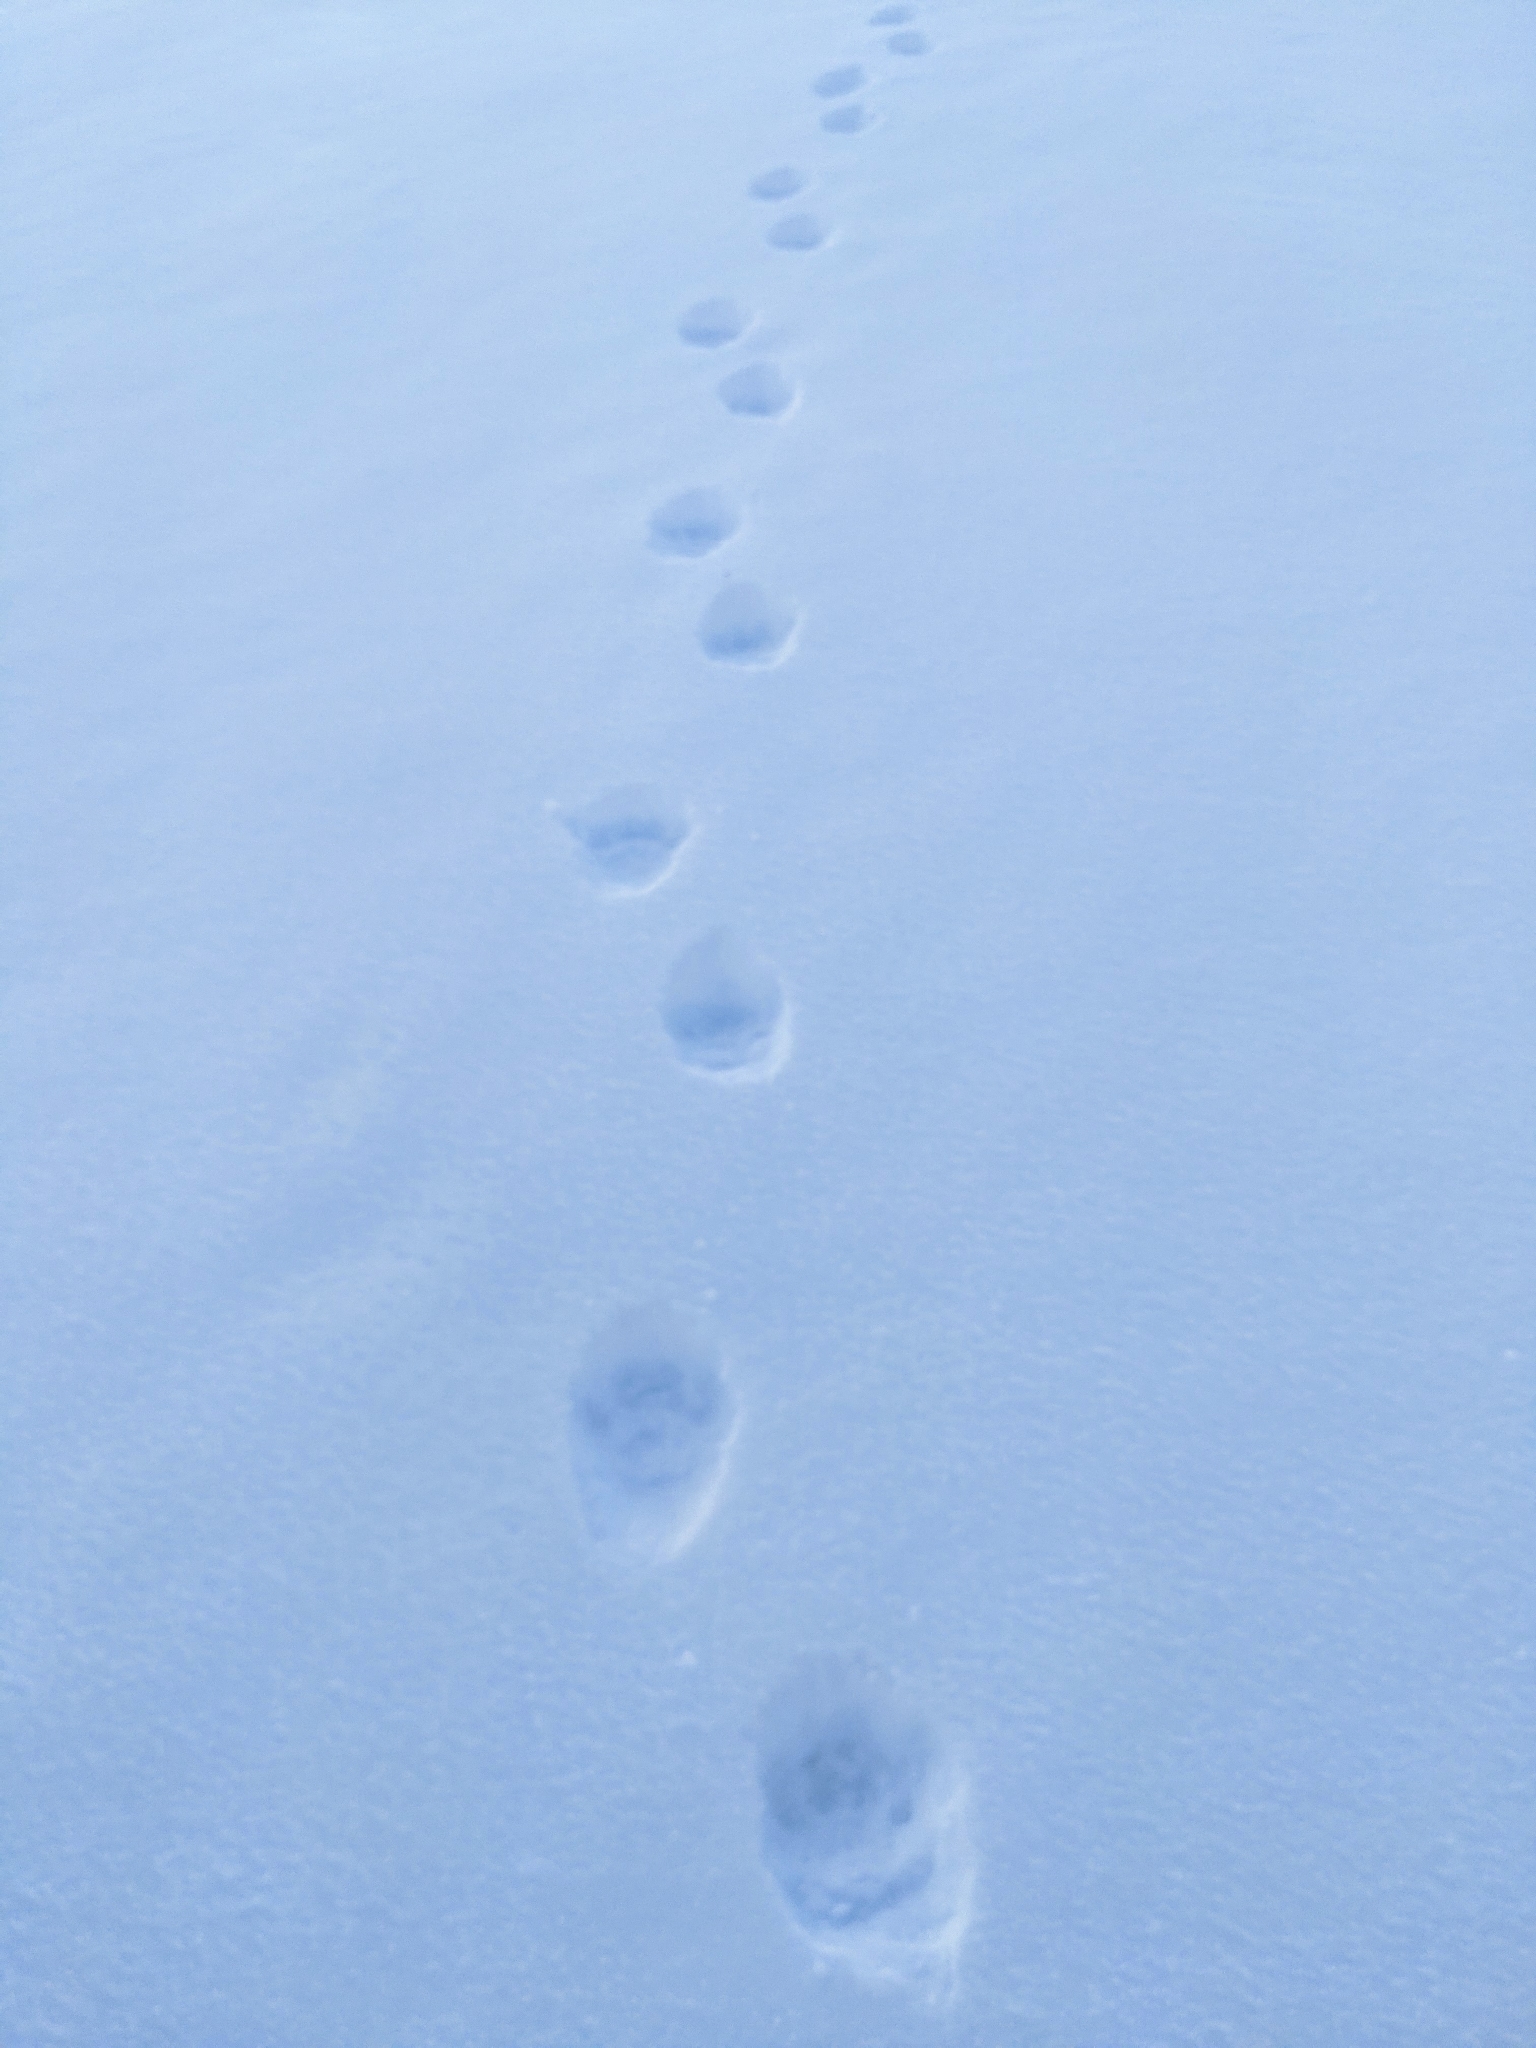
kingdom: Animalia
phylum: Chordata
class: Mammalia
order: Carnivora
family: Mustelidae
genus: Gulo
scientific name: Gulo gulo
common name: Wolverine
